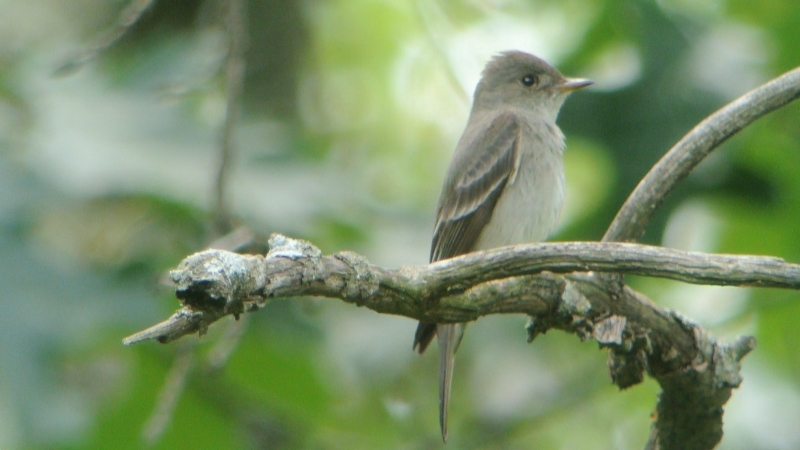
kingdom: Animalia
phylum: Chordata
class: Aves
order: Passeriformes
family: Tyrannidae
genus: Contopus
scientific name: Contopus sordidulus
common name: Western wood-pewee
